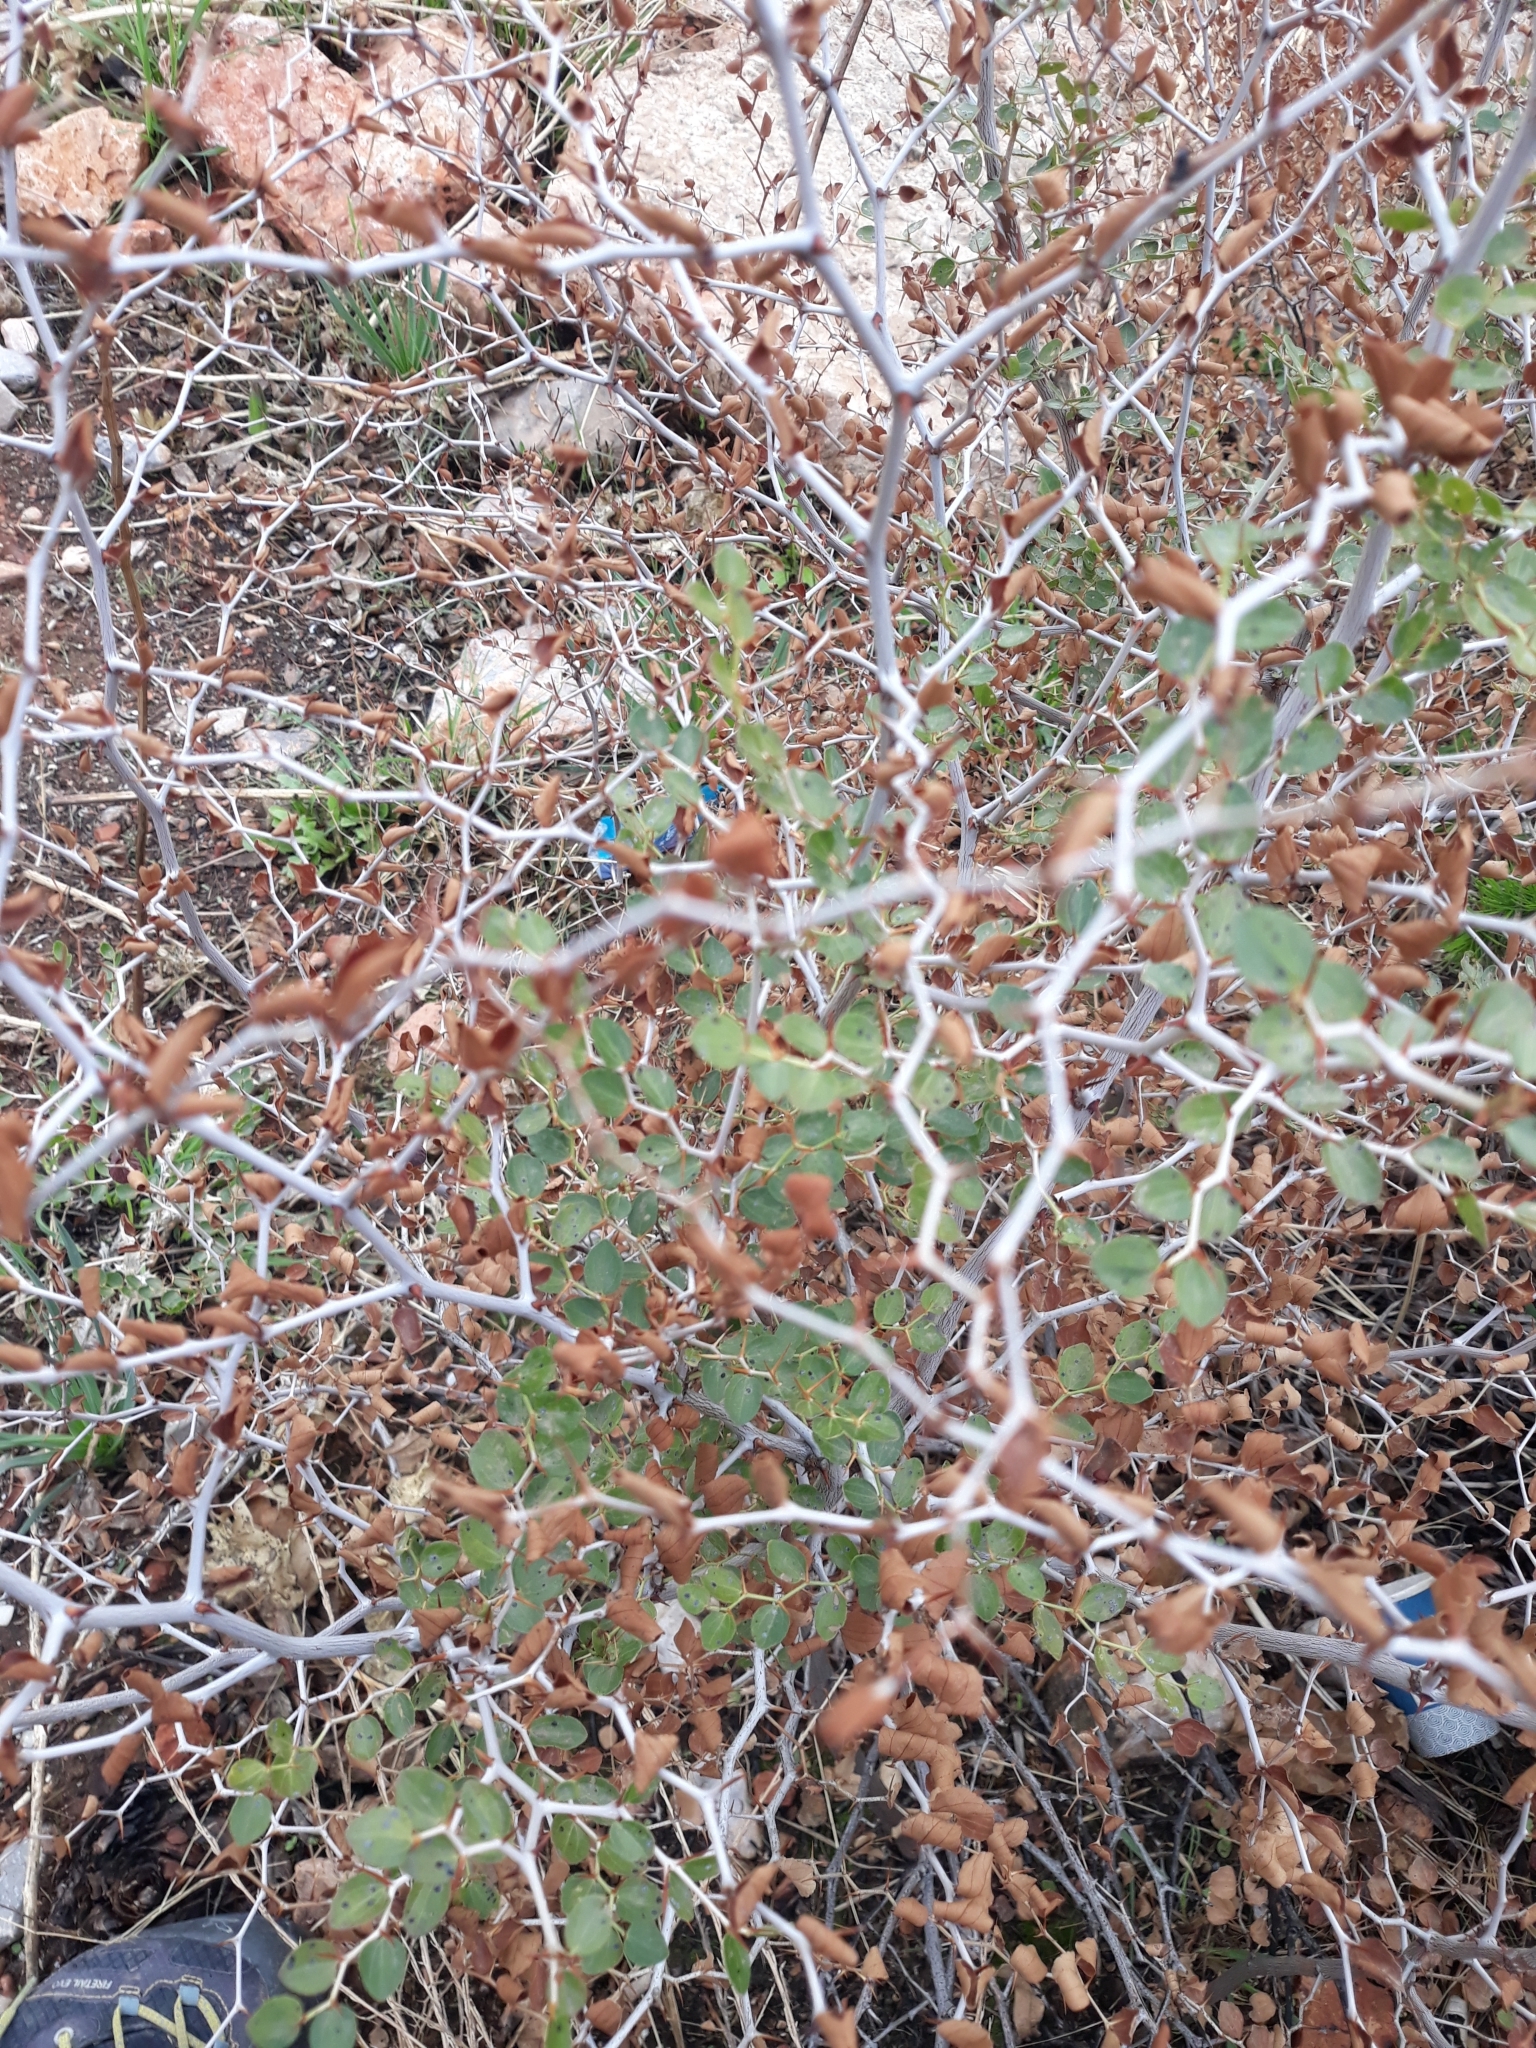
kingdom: Plantae
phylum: Tracheophyta
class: Magnoliopsida
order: Rosales
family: Rhamnaceae
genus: Ziziphus
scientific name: Ziziphus lotus
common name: Lotus
